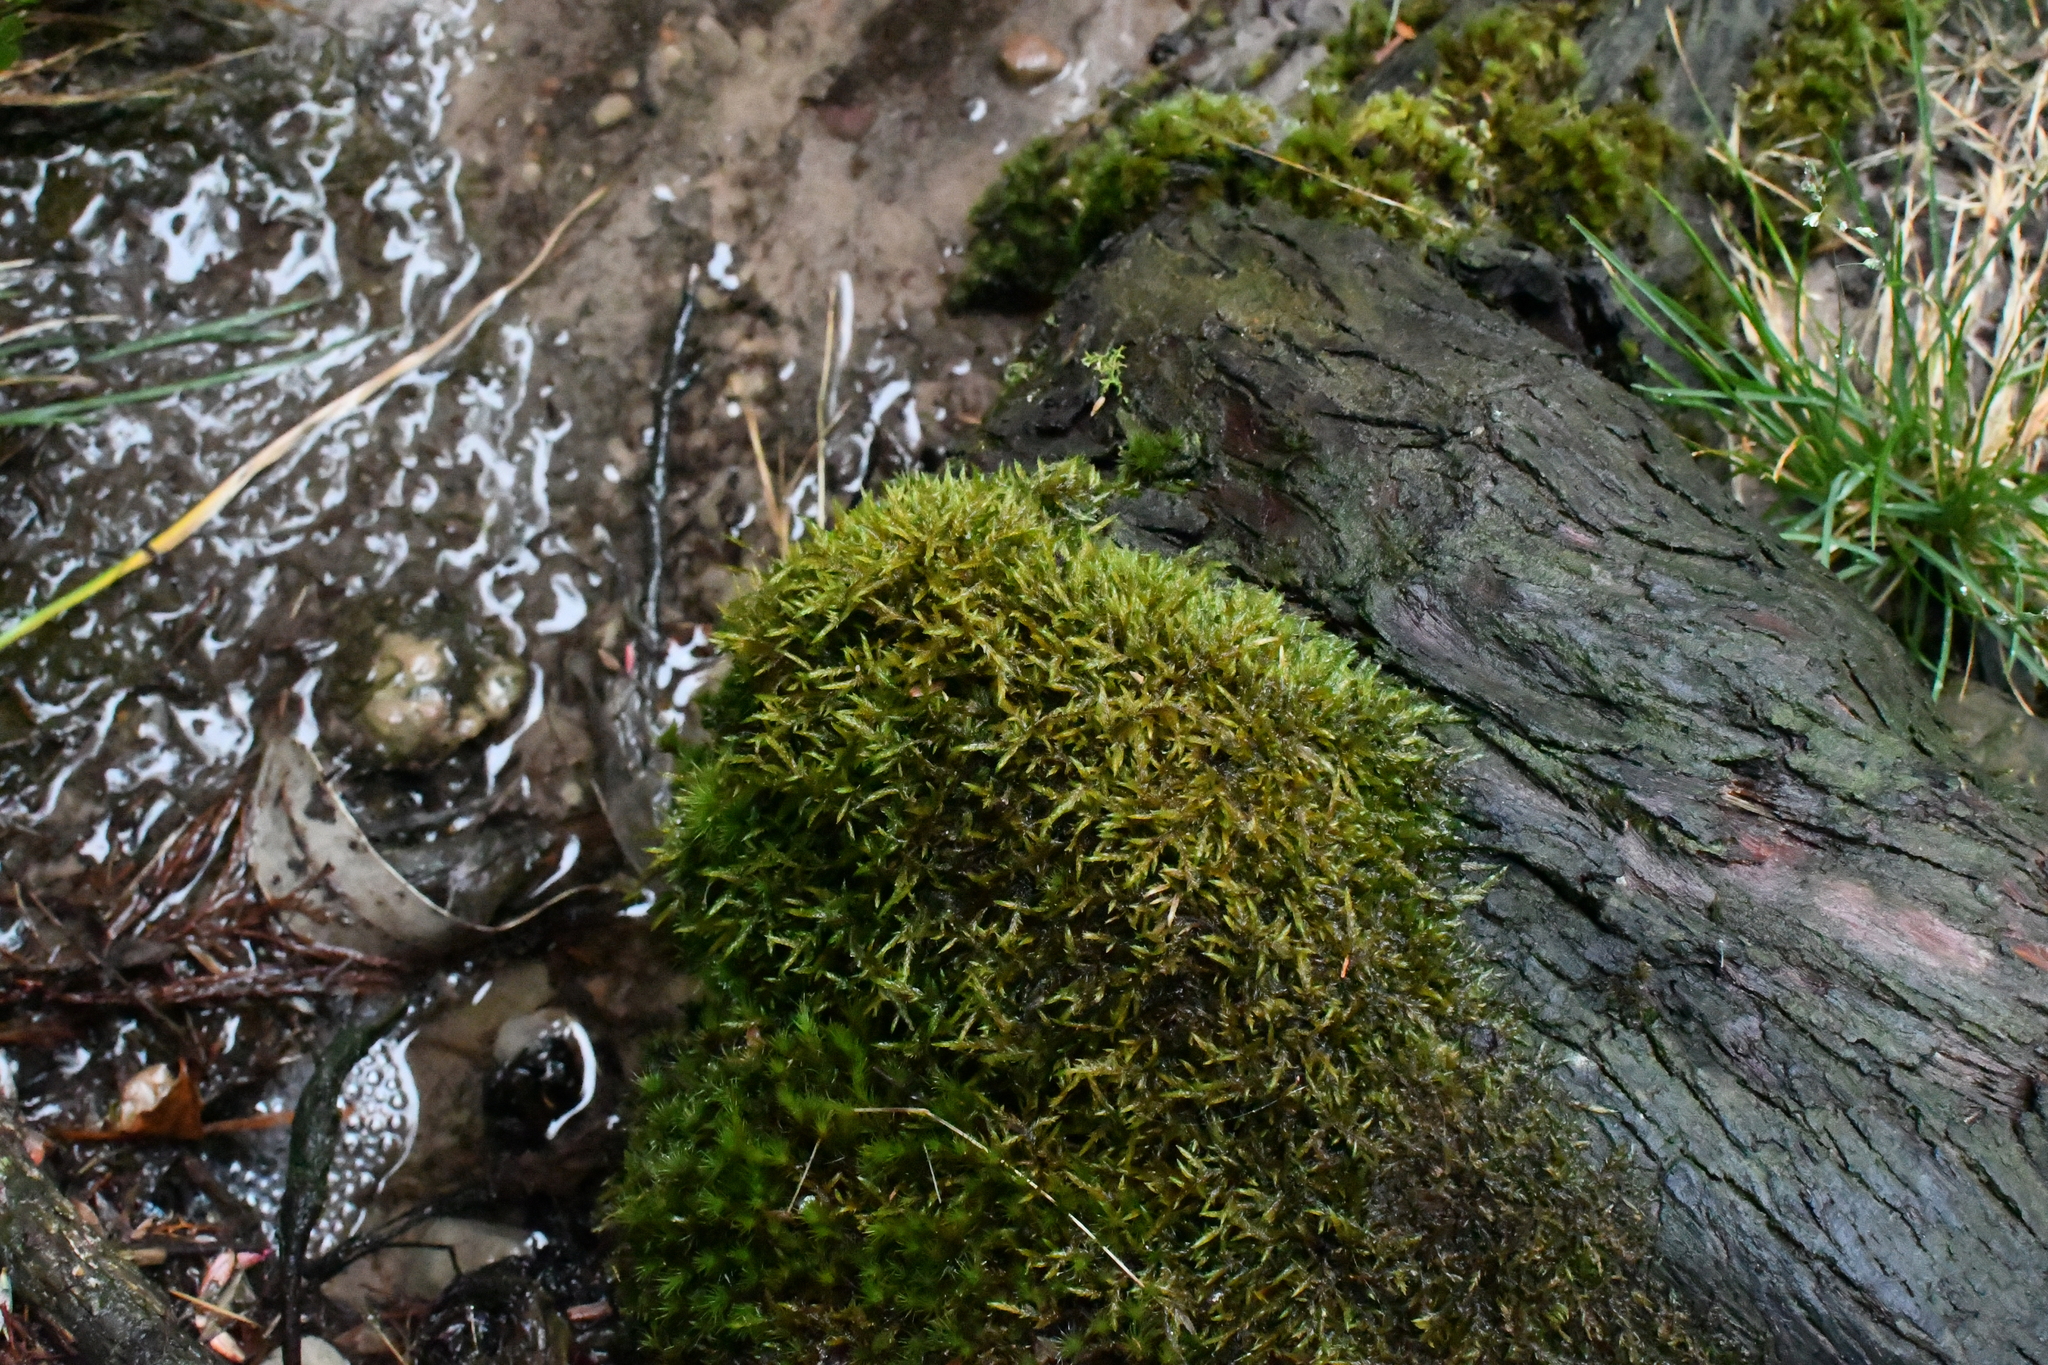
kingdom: Plantae
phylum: Bryophyta
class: Bryopsida
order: Hypnales
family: Pylaisiadelphaceae
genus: Wijkia
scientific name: Wijkia extenuata
